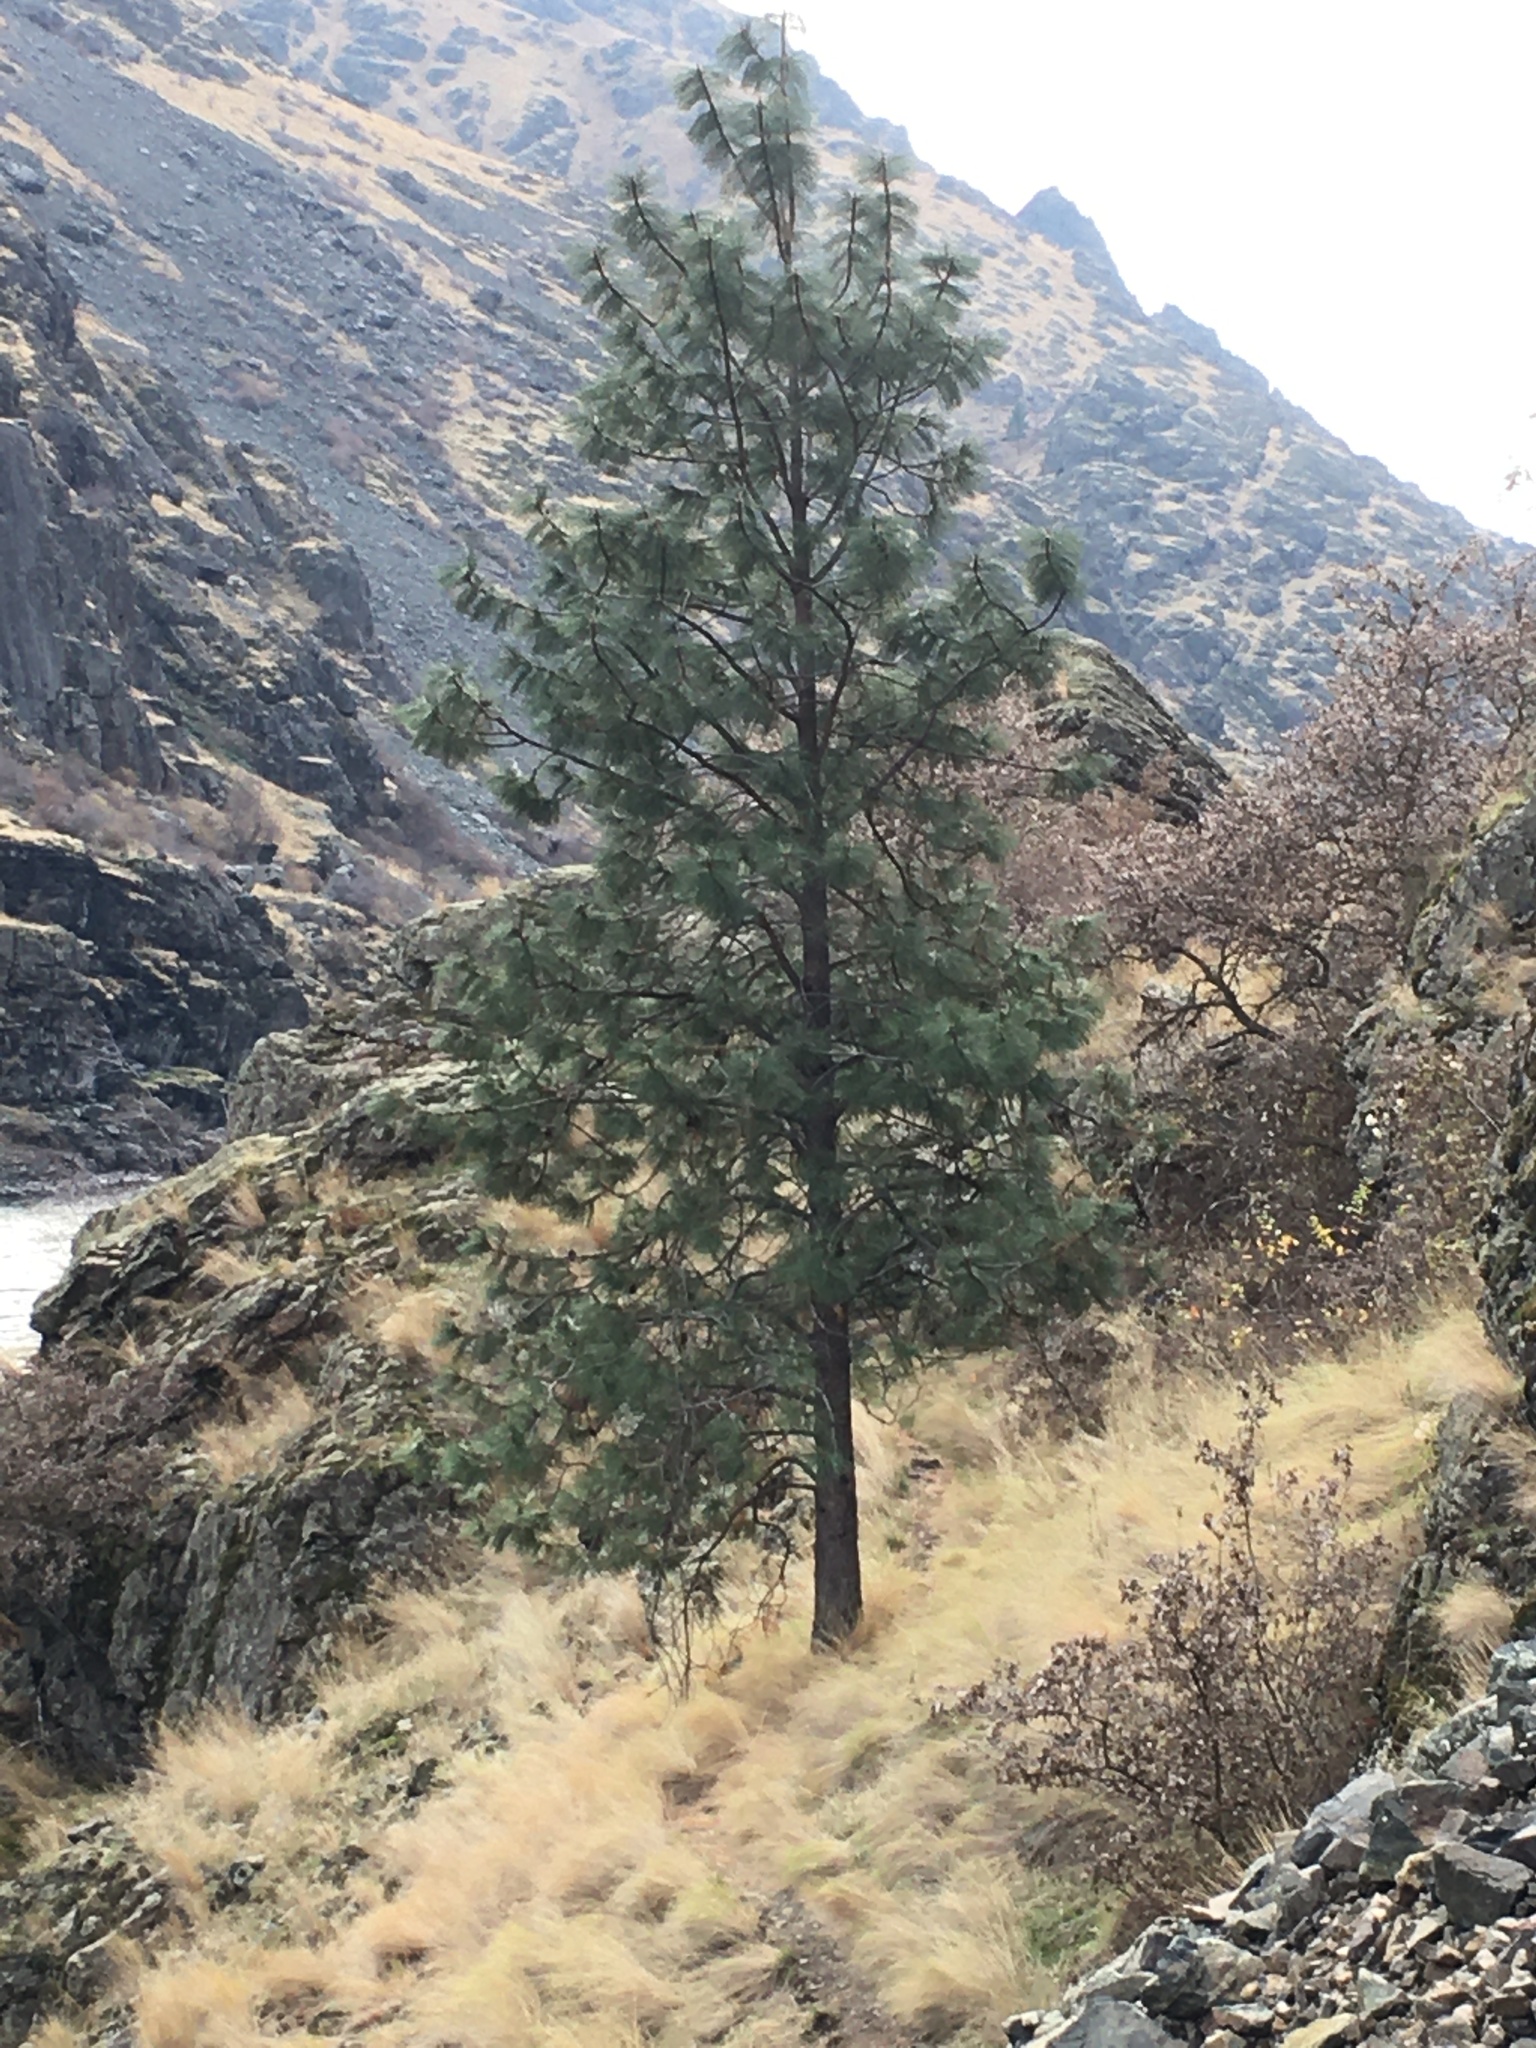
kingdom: Plantae
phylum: Tracheophyta
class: Pinopsida
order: Pinales
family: Pinaceae
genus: Pinus
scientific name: Pinus ponderosa
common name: Western yellow-pine
